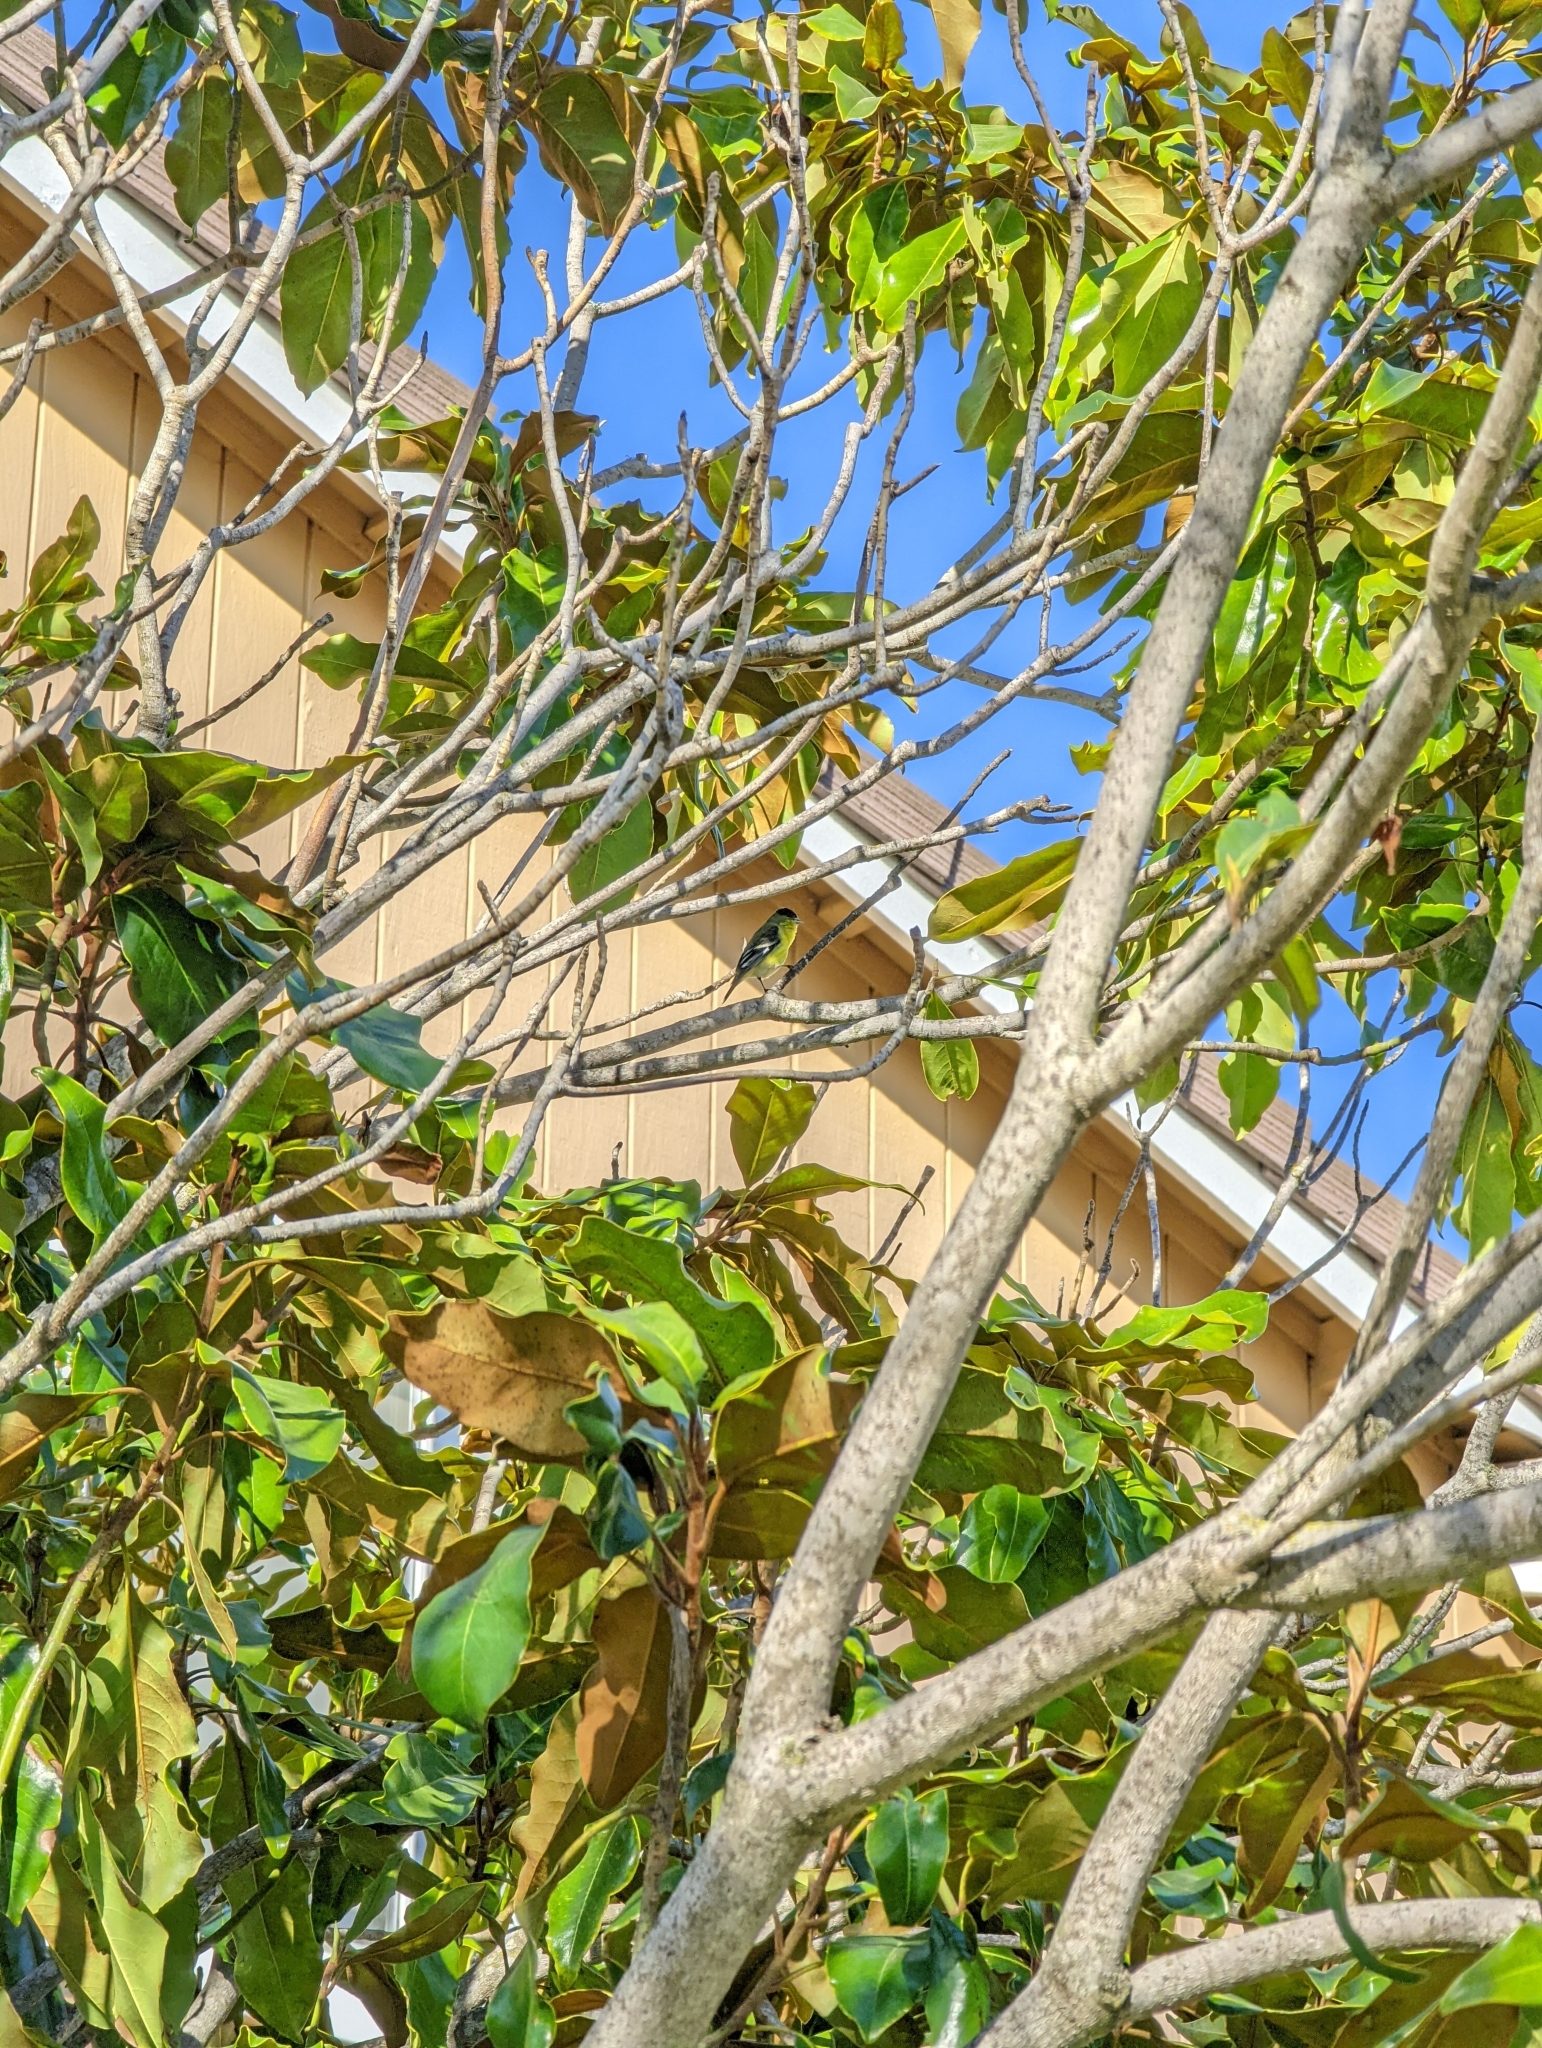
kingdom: Animalia
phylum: Chordata
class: Aves
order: Passeriformes
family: Fringillidae
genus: Spinus
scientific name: Spinus psaltria
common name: Lesser goldfinch
